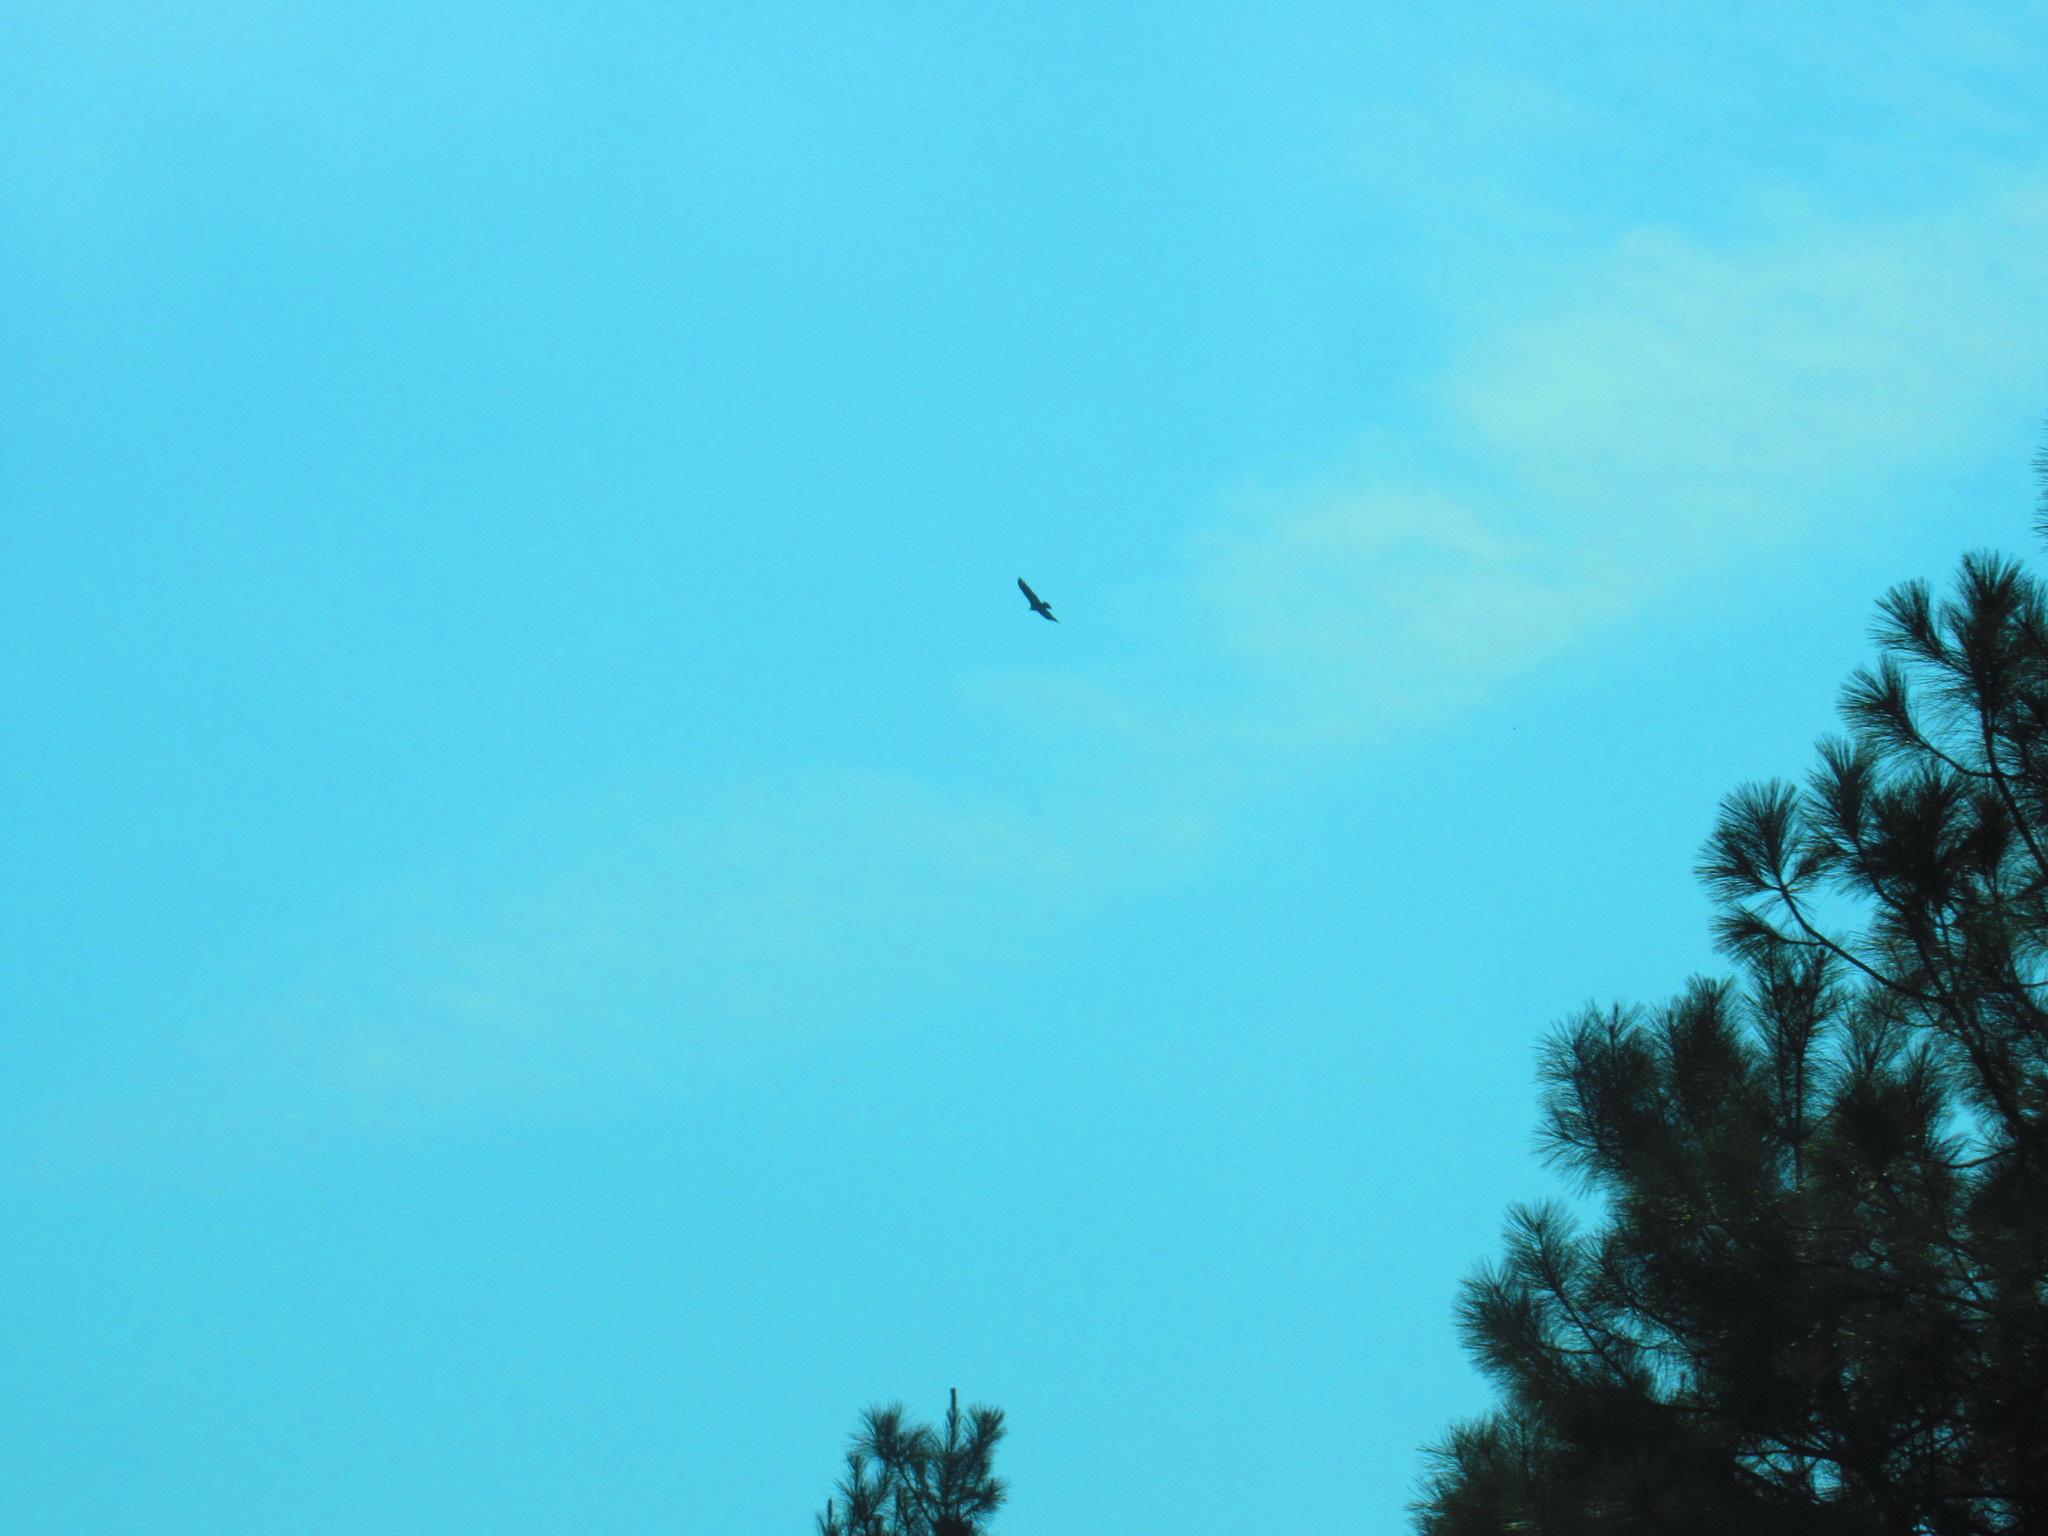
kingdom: Animalia
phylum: Chordata
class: Aves
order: Passeriformes
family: Corvidae
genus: Corvus
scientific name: Corvus corax
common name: Common raven
